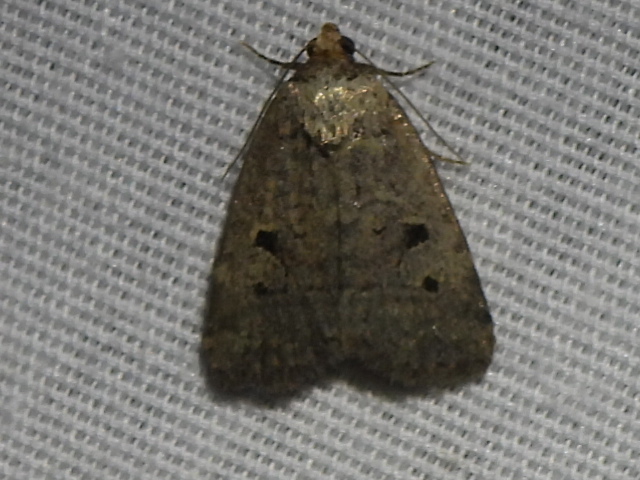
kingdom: Animalia
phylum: Arthropoda
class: Insecta
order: Lepidoptera
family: Noctuidae
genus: Elaphria
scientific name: Elaphria festivoides
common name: Festive midget
